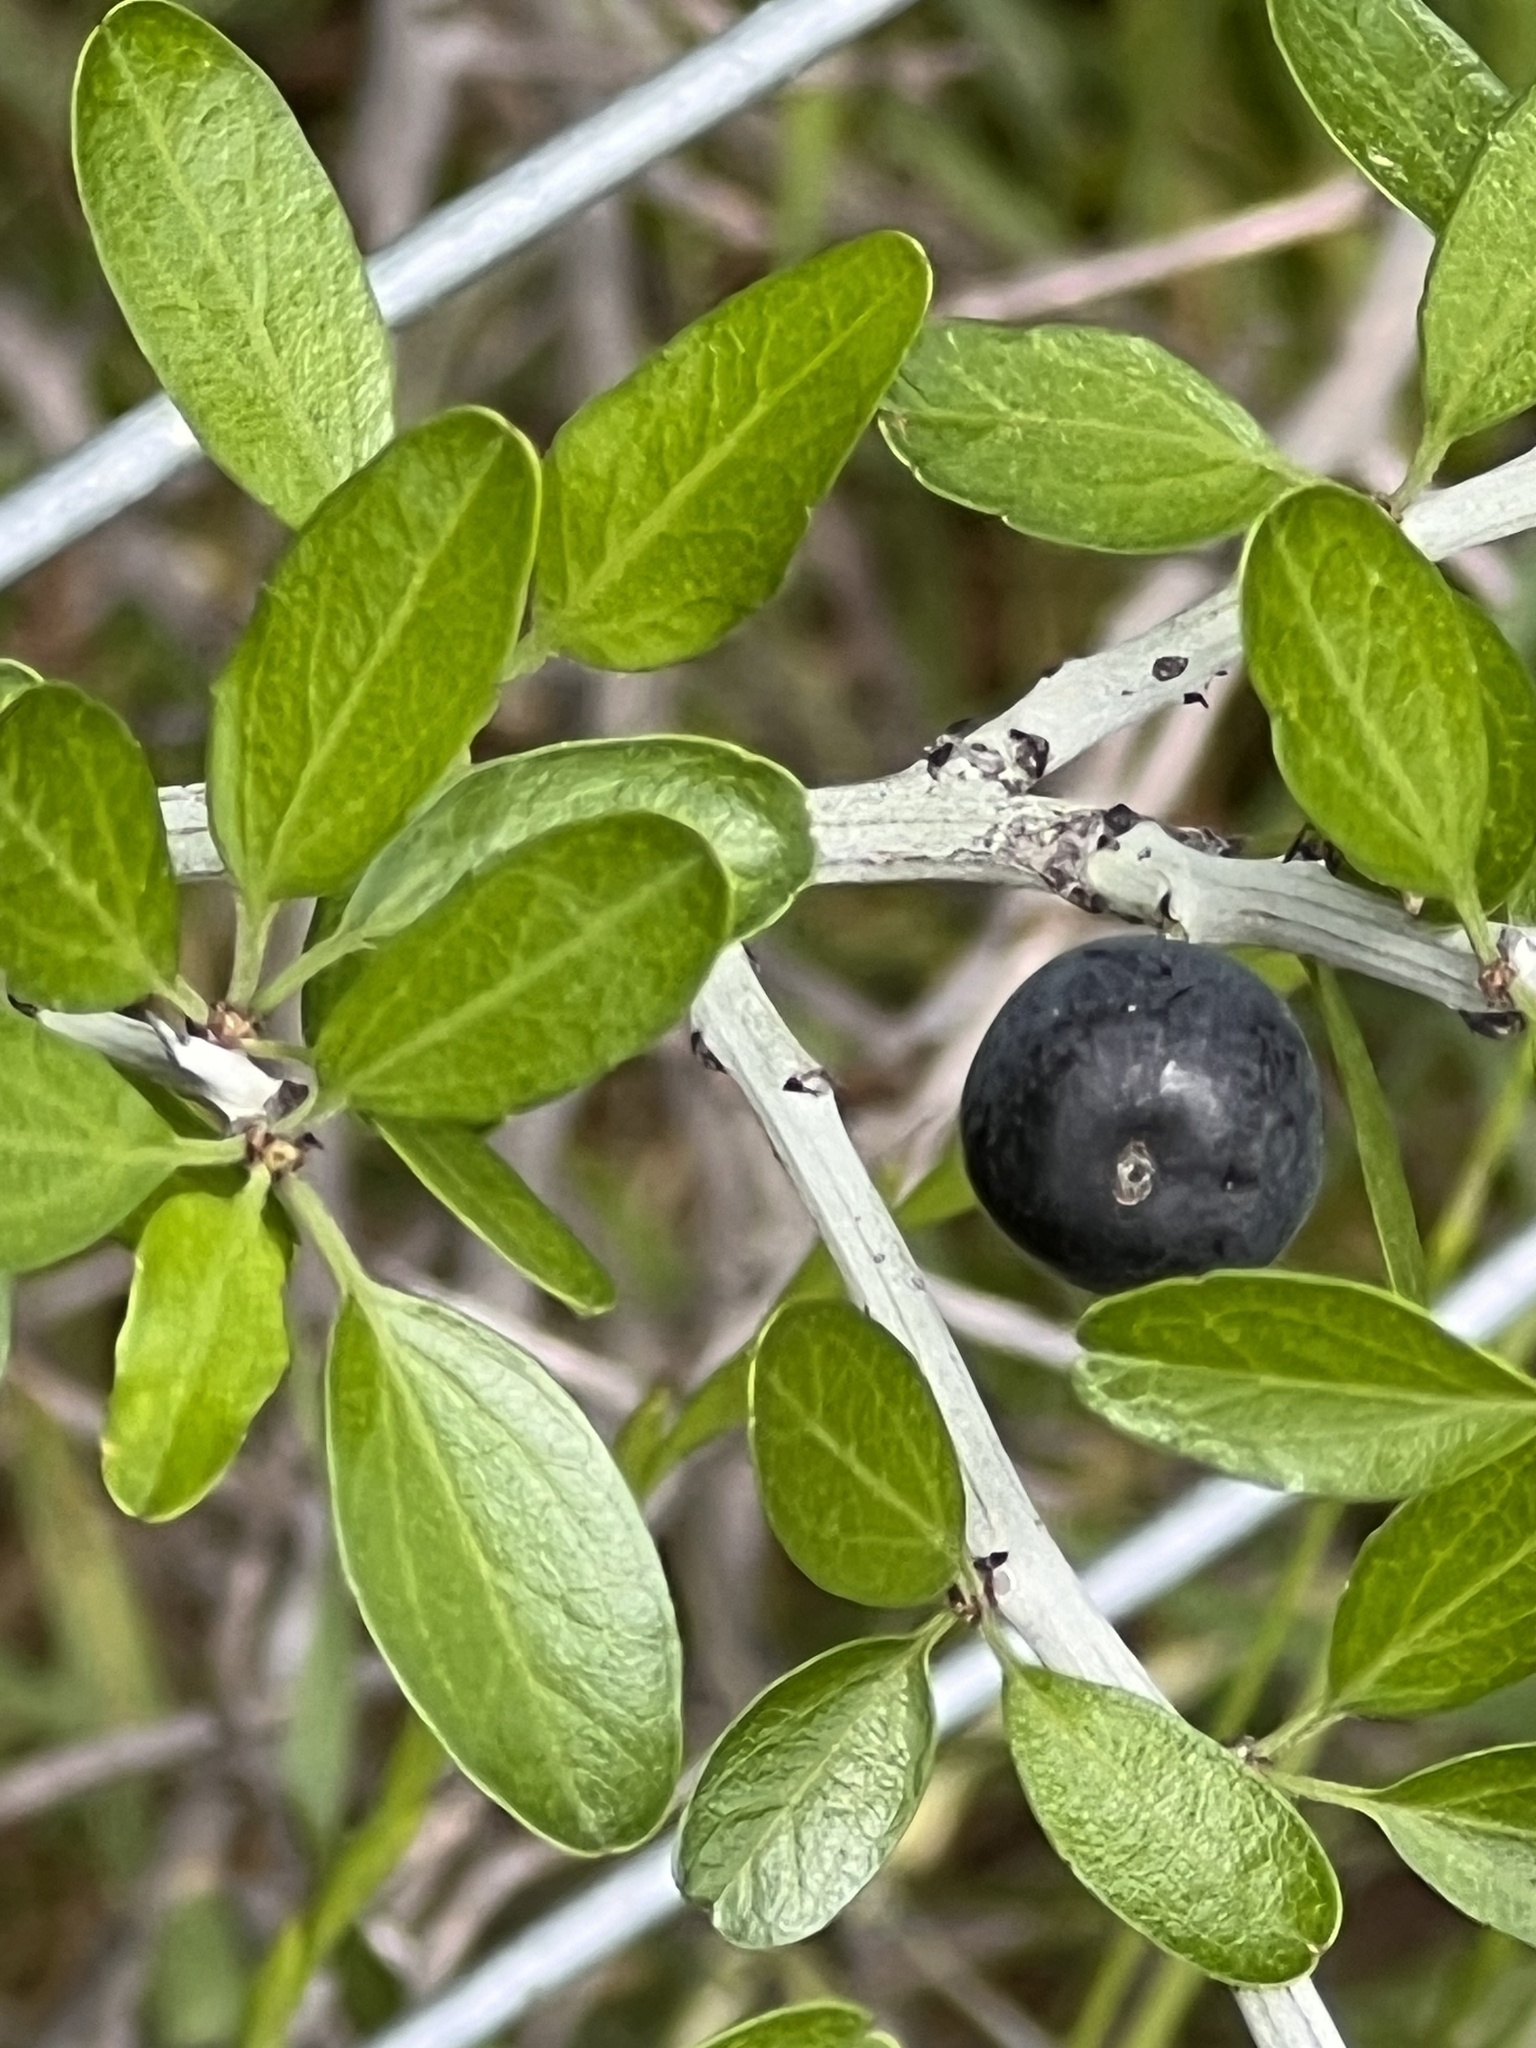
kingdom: Plantae
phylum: Tracheophyta
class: Magnoliopsida
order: Rosales
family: Rhamnaceae
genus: Sarcomphalus
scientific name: Sarcomphalus obtusifolius
